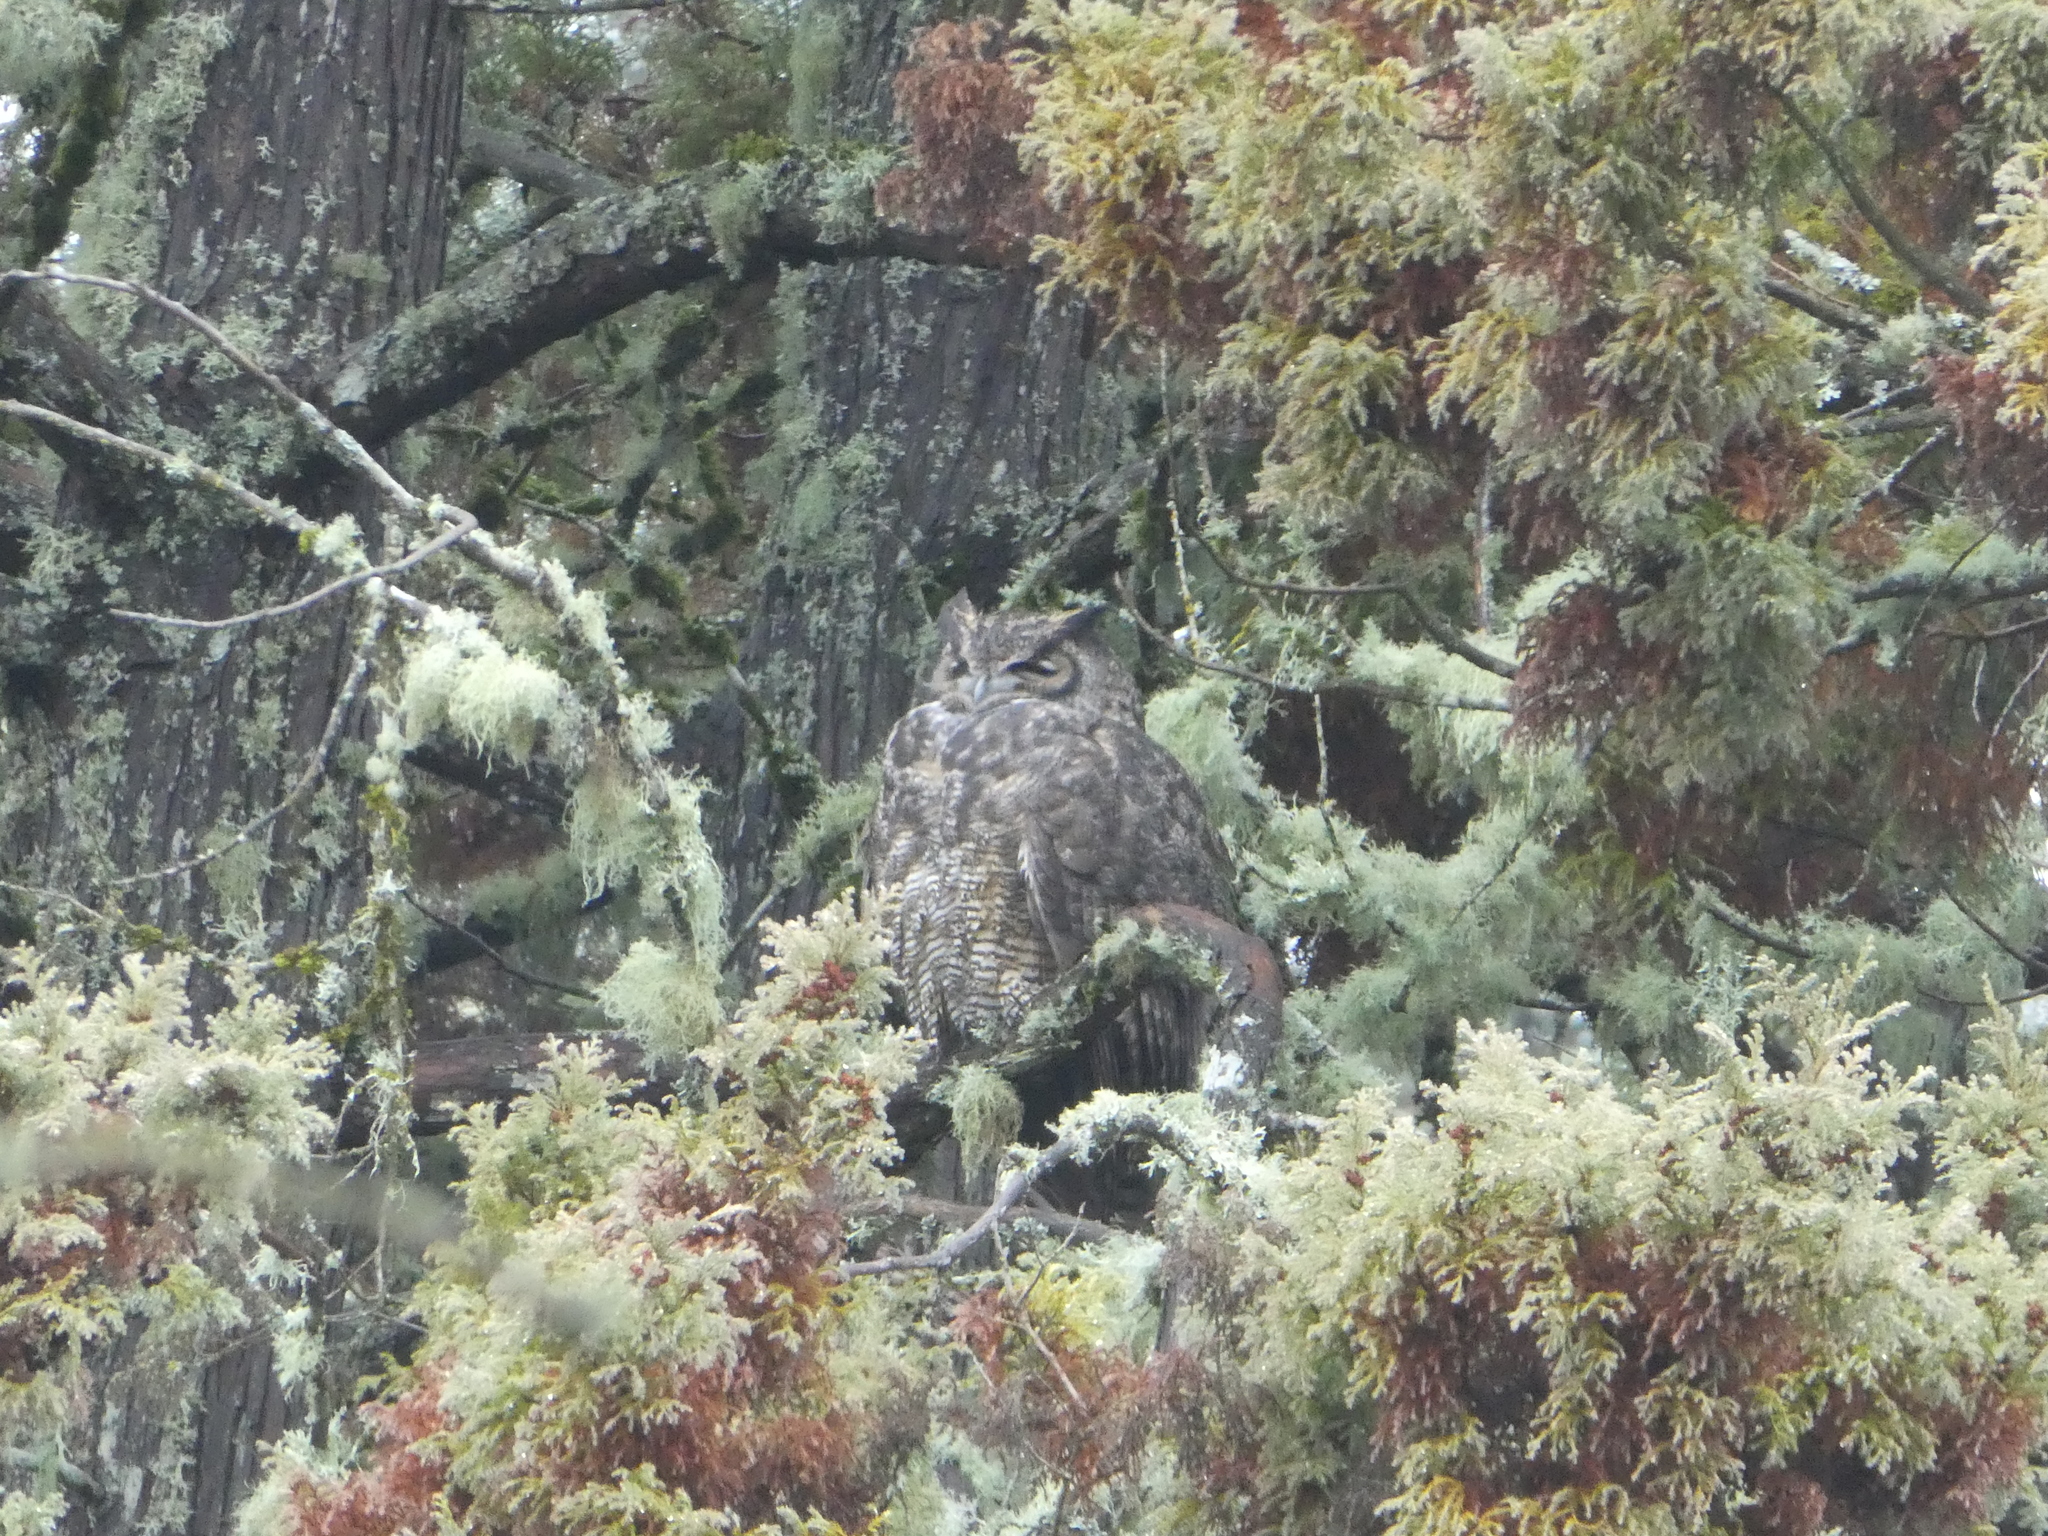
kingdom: Animalia
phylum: Chordata
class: Aves
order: Strigiformes
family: Strigidae
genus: Bubo
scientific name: Bubo virginianus
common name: Great horned owl
